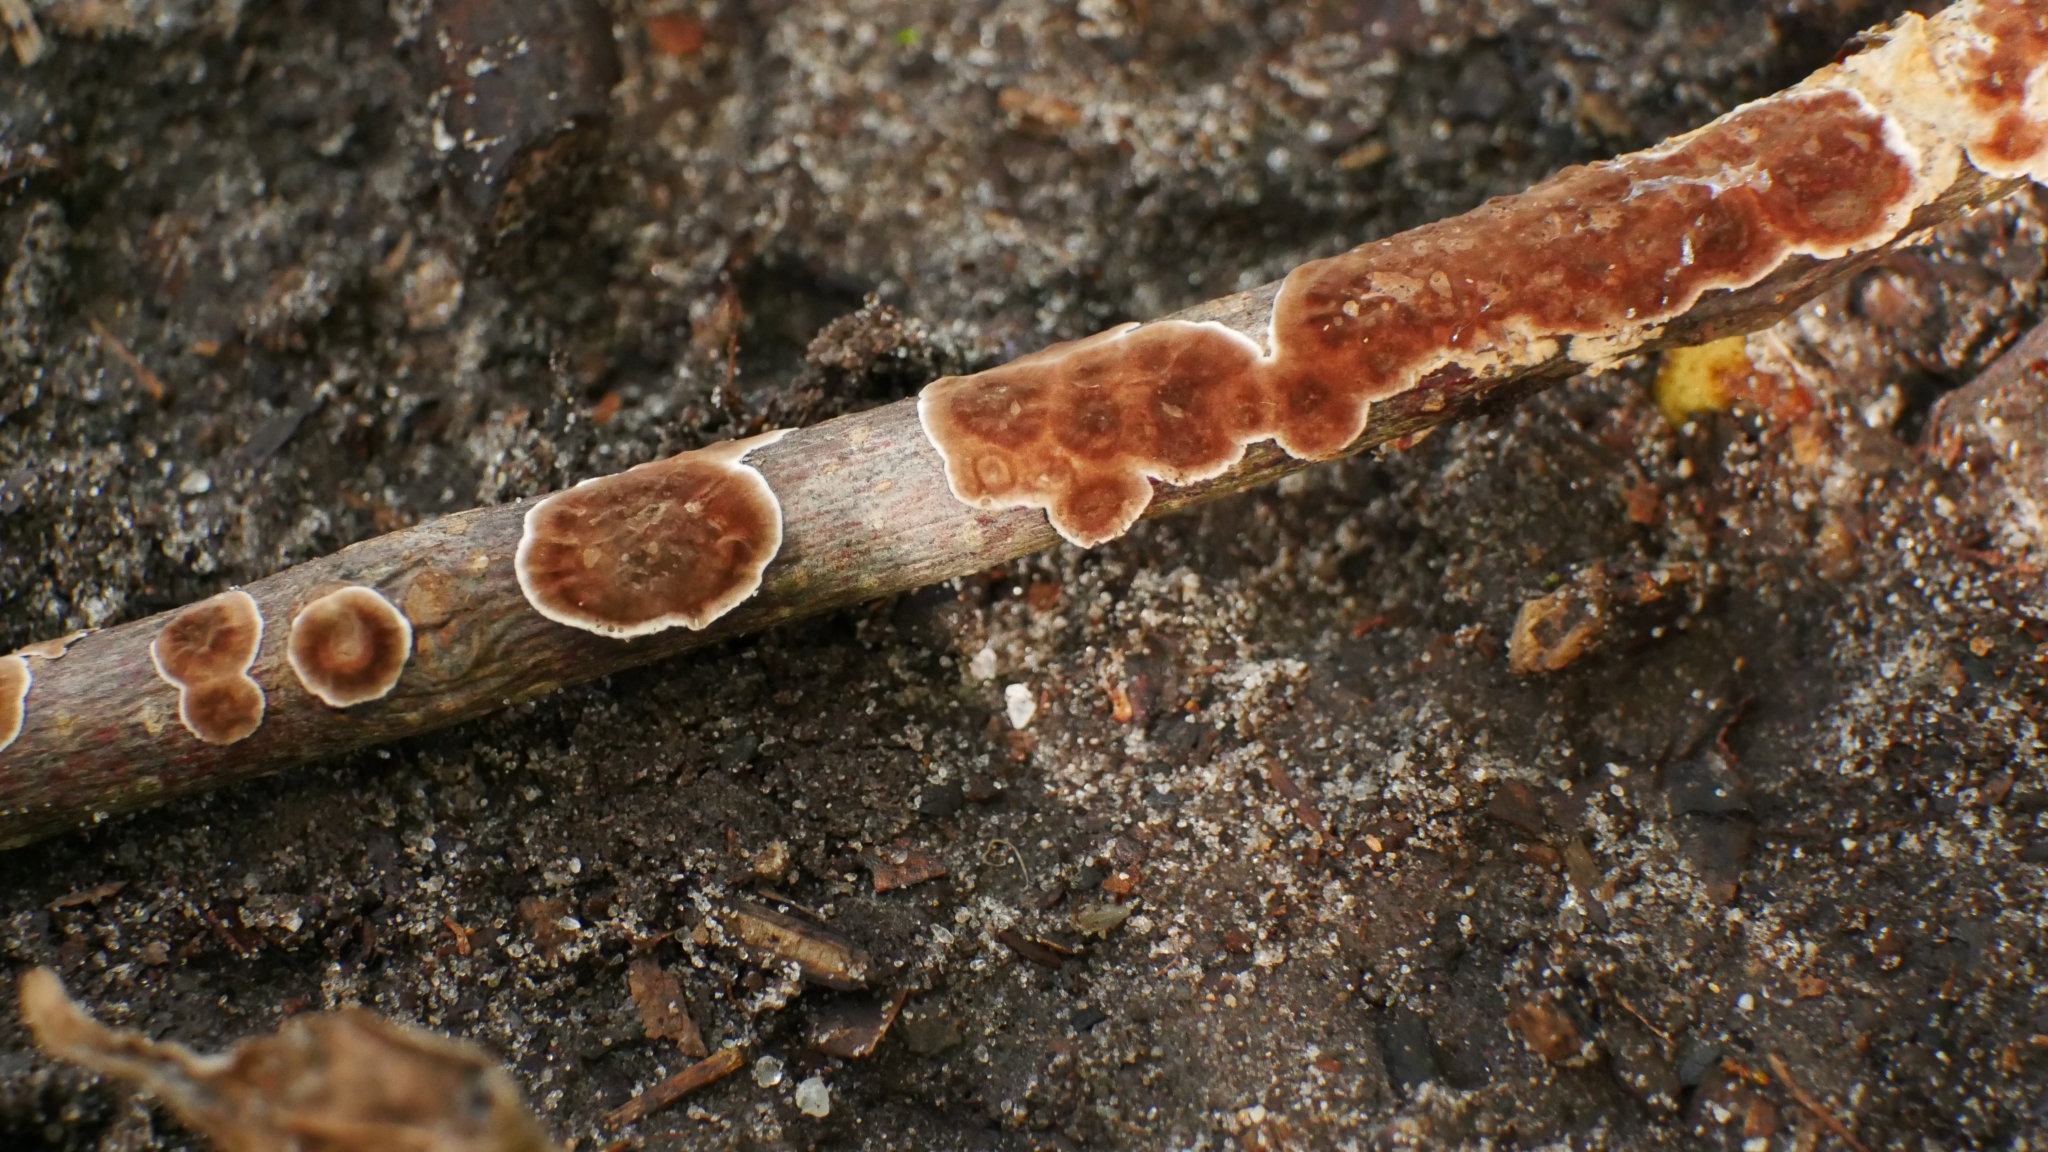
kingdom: Fungi
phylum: Basidiomycota
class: Agaricomycetes
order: Russulales
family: Peniophoraceae
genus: Peniophora
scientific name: Peniophora albobadia
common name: Giraffe spots
